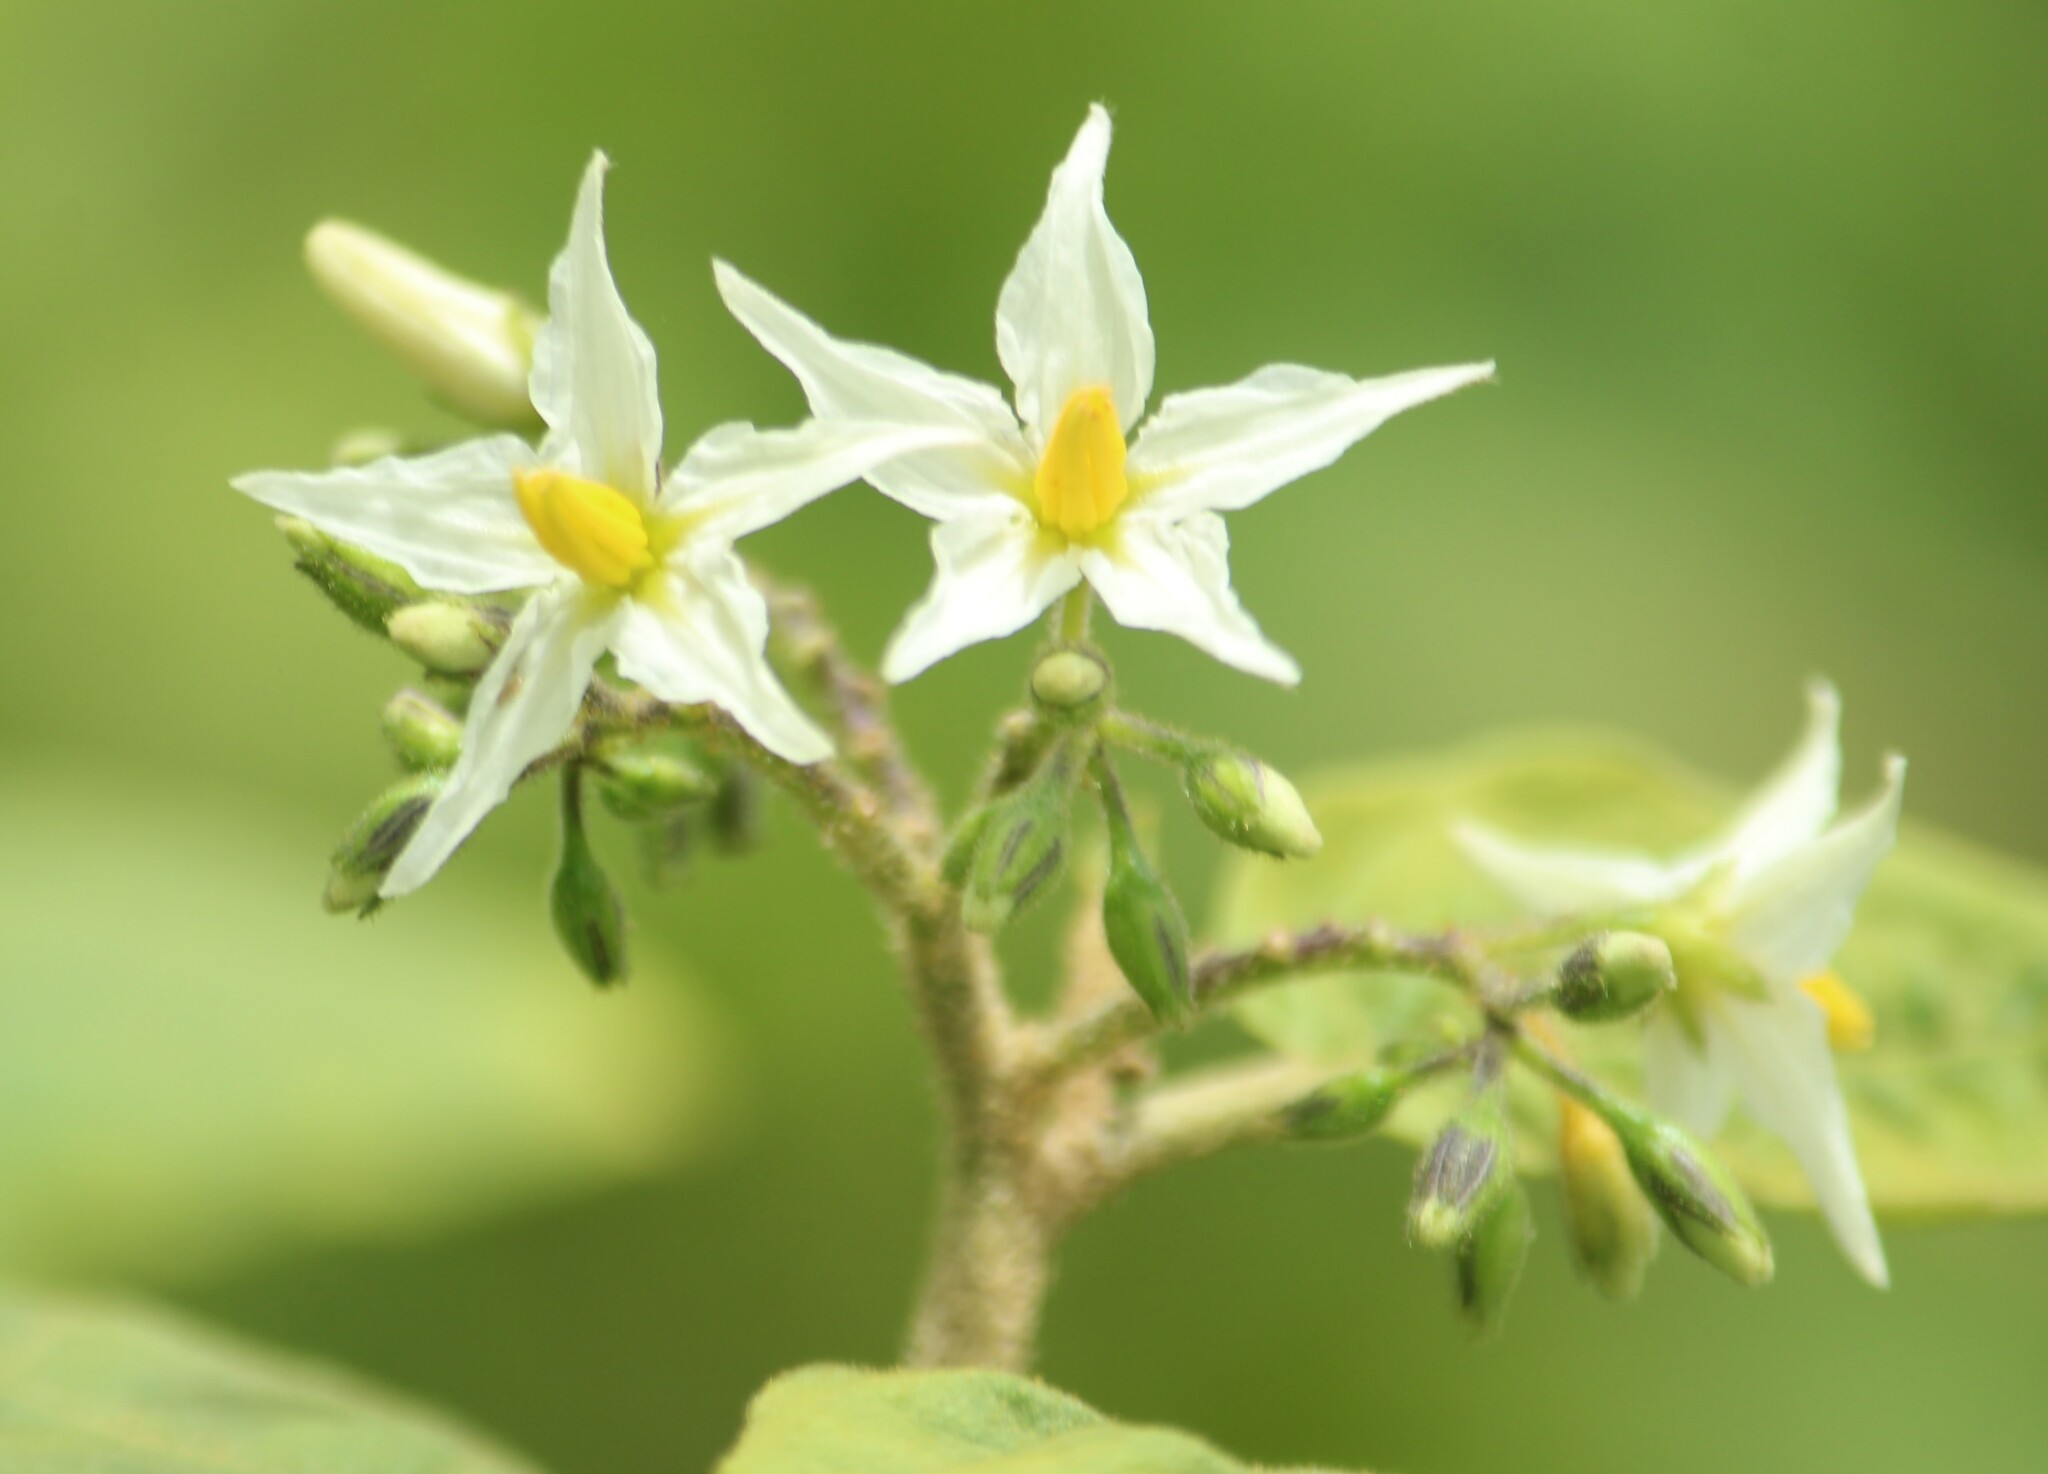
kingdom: Plantae
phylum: Tracheophyta
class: Magnoliopsida
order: Solanales
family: Solanaceae
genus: Solanum
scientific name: Solanum torvum
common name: Turkey berry
